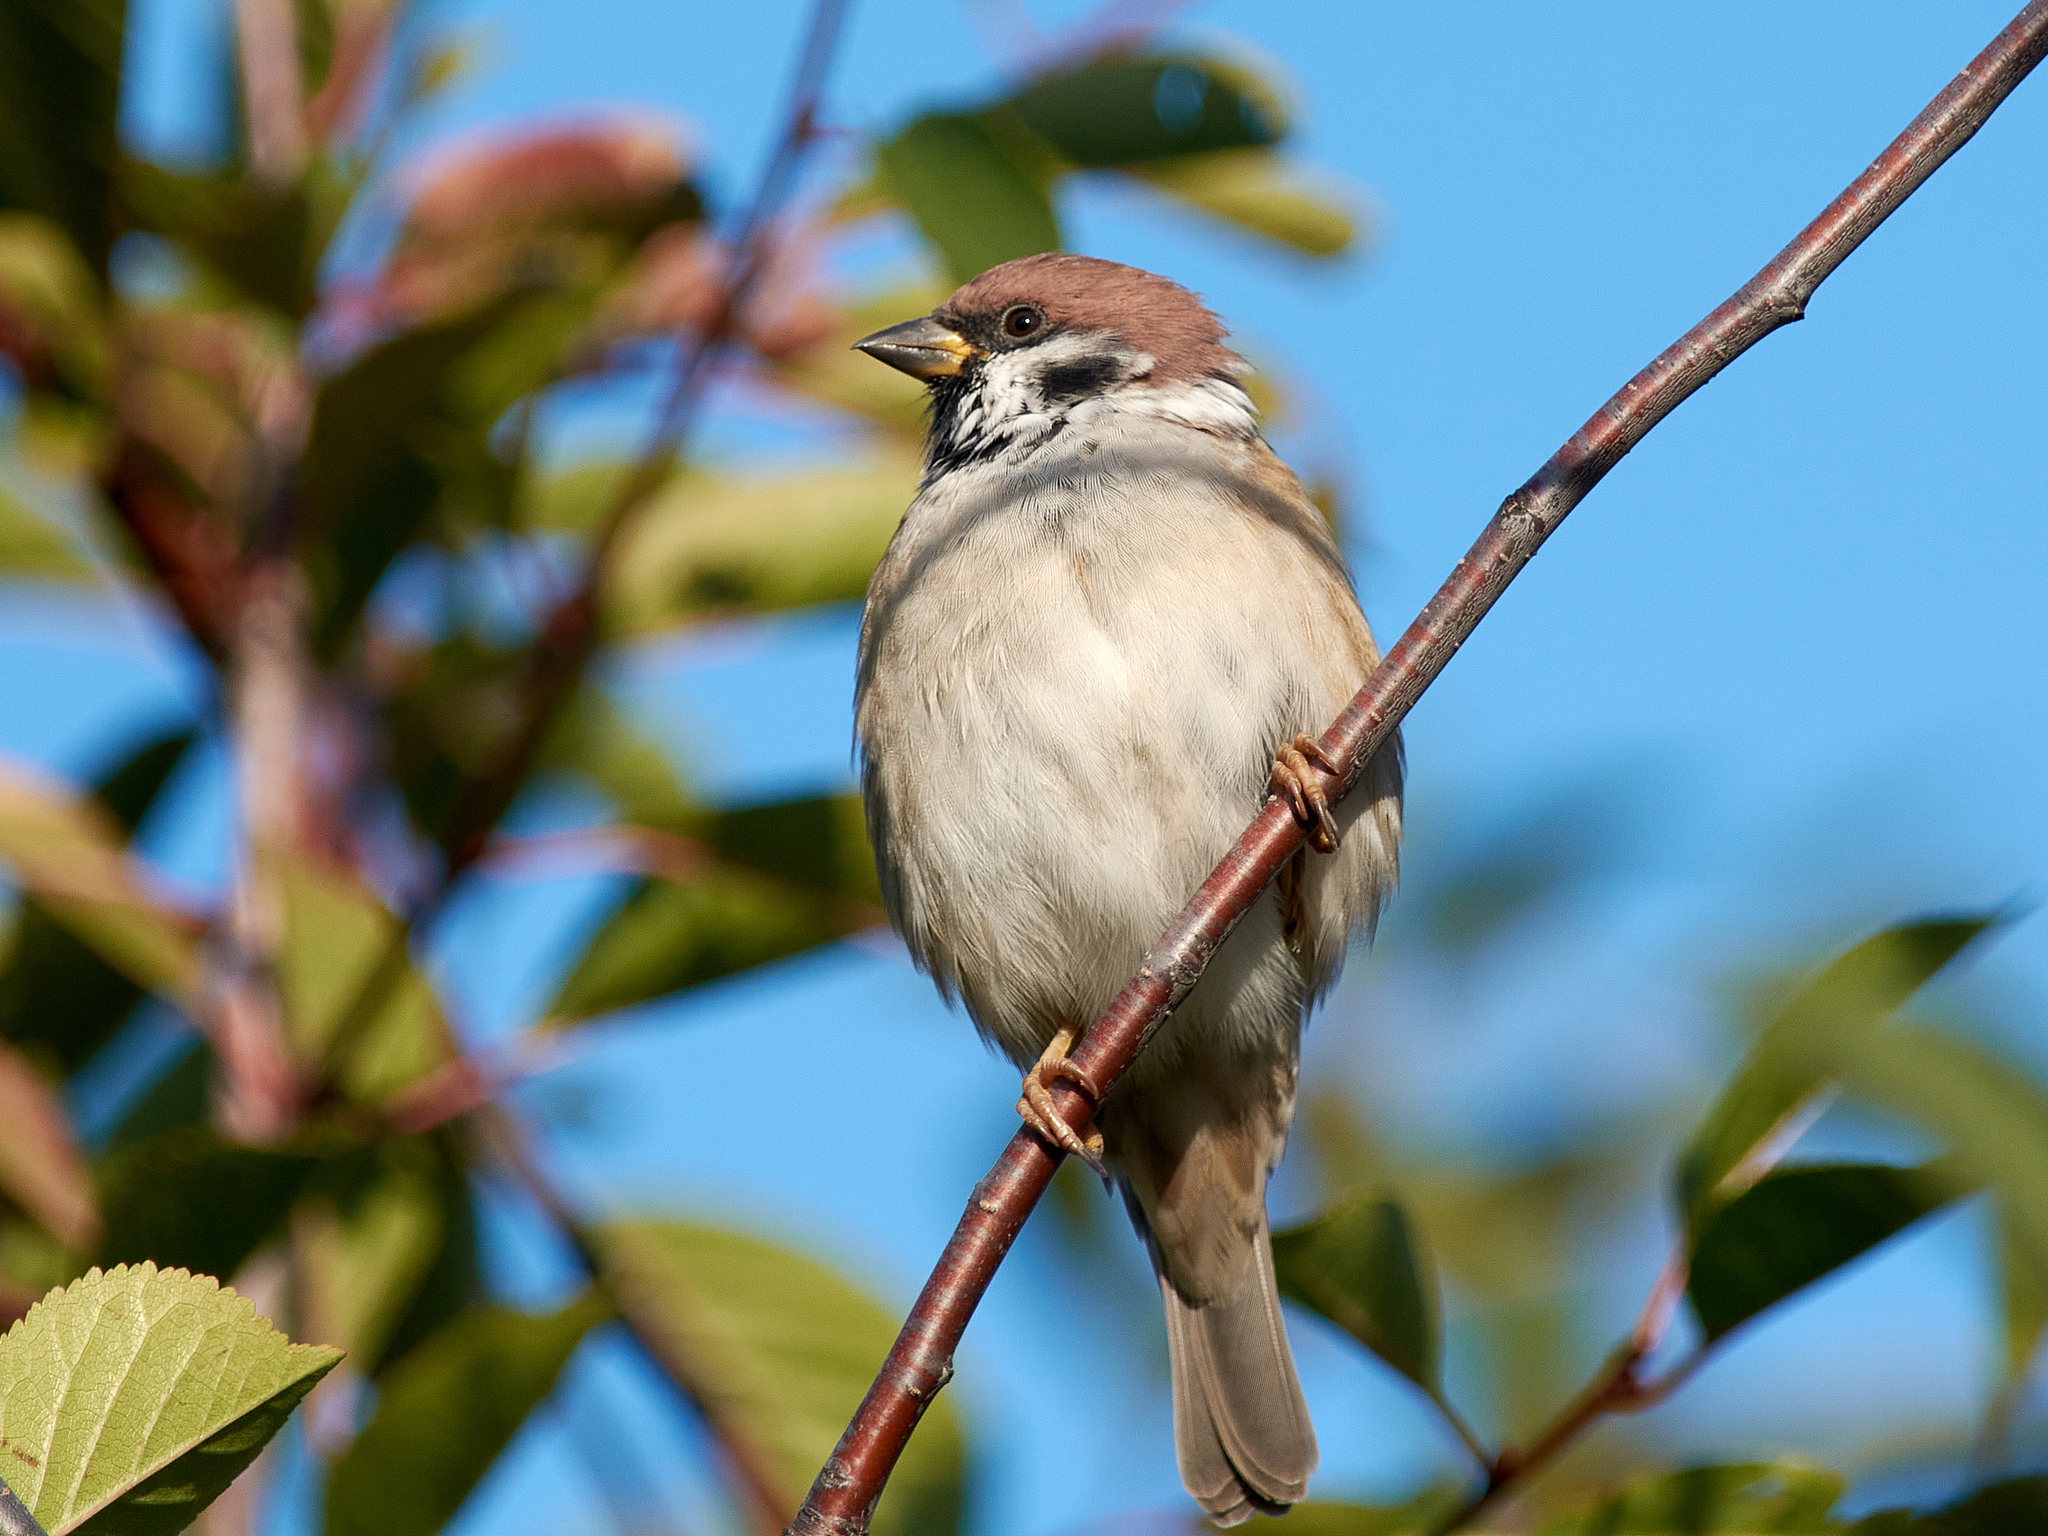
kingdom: Animalia
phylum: Chordata
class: Aves
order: Passeriformes
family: Passeridae
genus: Passer
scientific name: Passer montanus
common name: Eurasian tree sparrow
